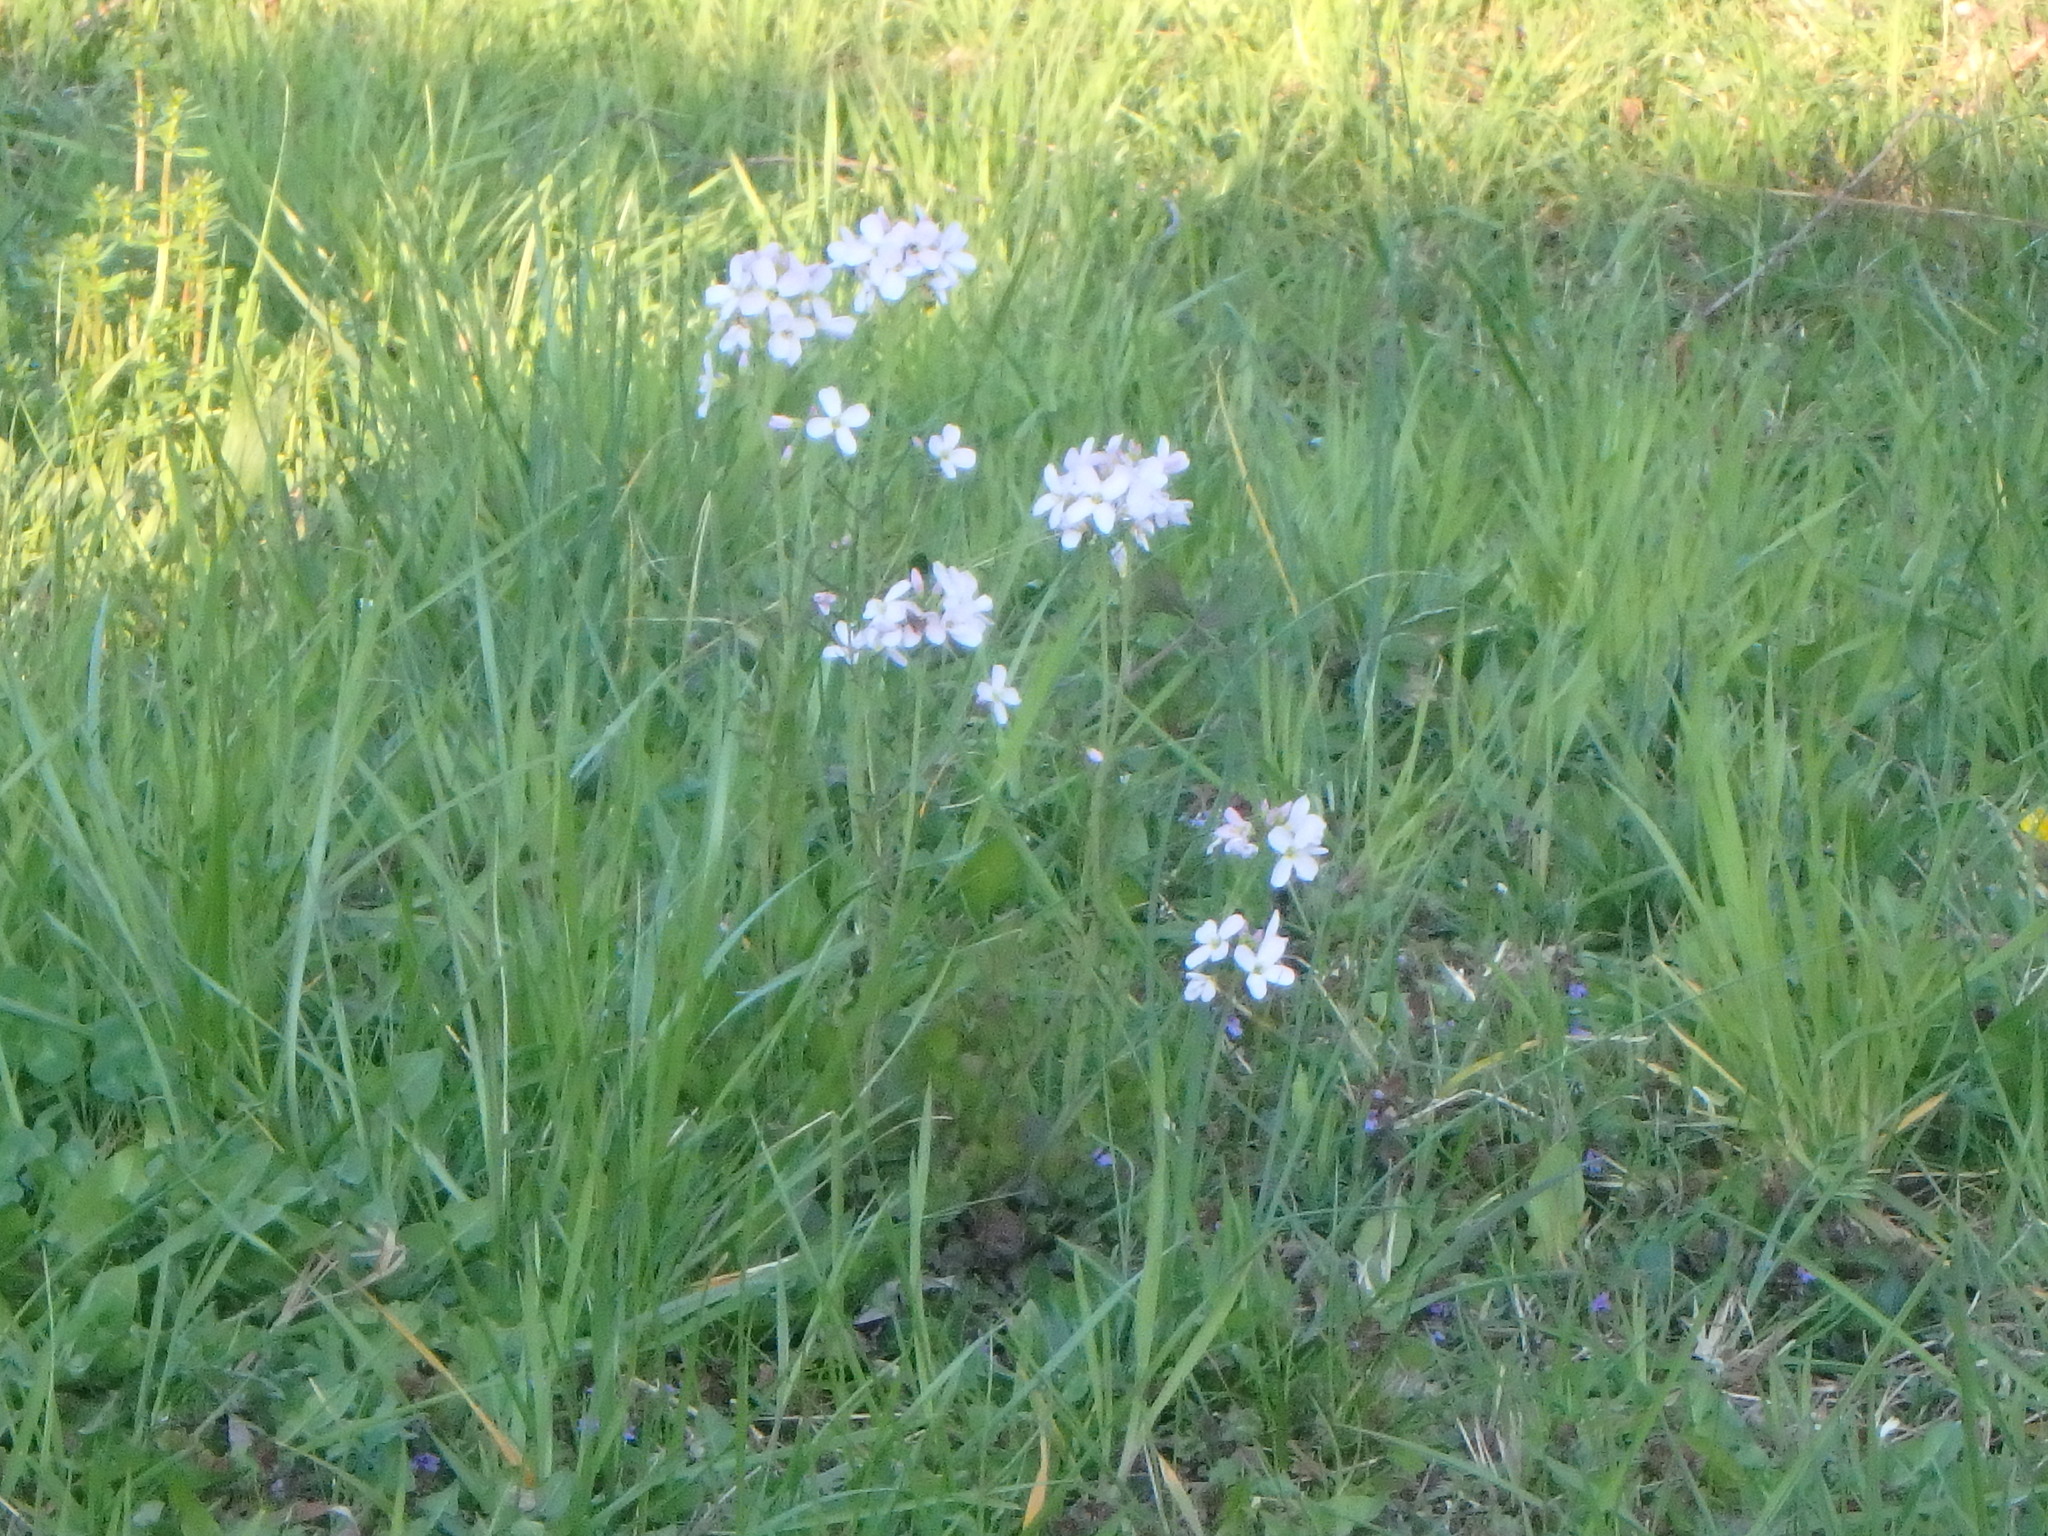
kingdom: Plantae
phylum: Tracheophyta
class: Magnoliopsida
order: Brassicales
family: Brassicaceae
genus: Cardamine
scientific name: Cardamine pratensis
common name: Cuckoo flower
